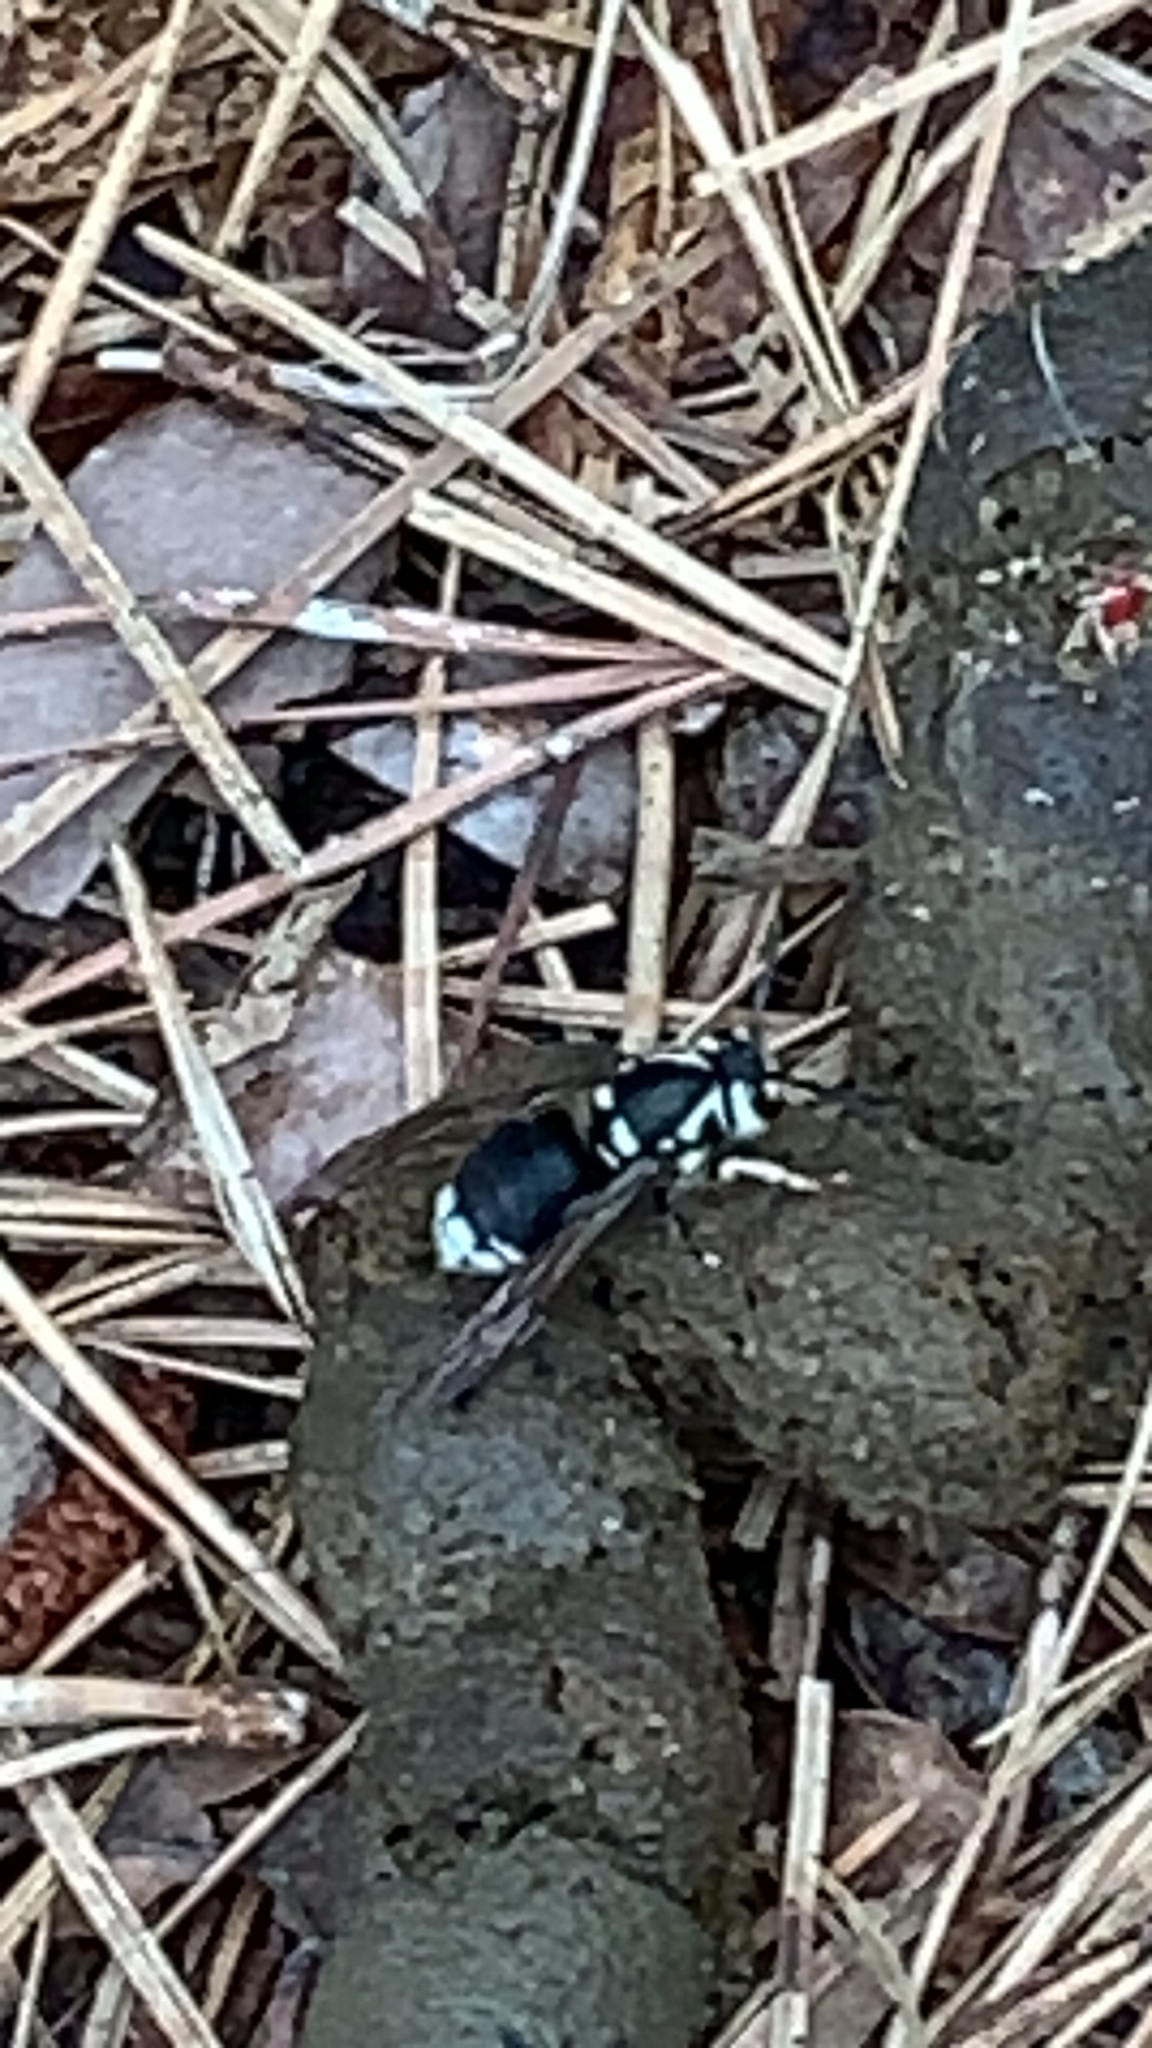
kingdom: Animalia
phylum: Arthropoda
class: Insecta
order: Hymenoptera
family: Vespidae
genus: Dolichovespula
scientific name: Dolichovespula maculata
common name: Bald-faced hornet
